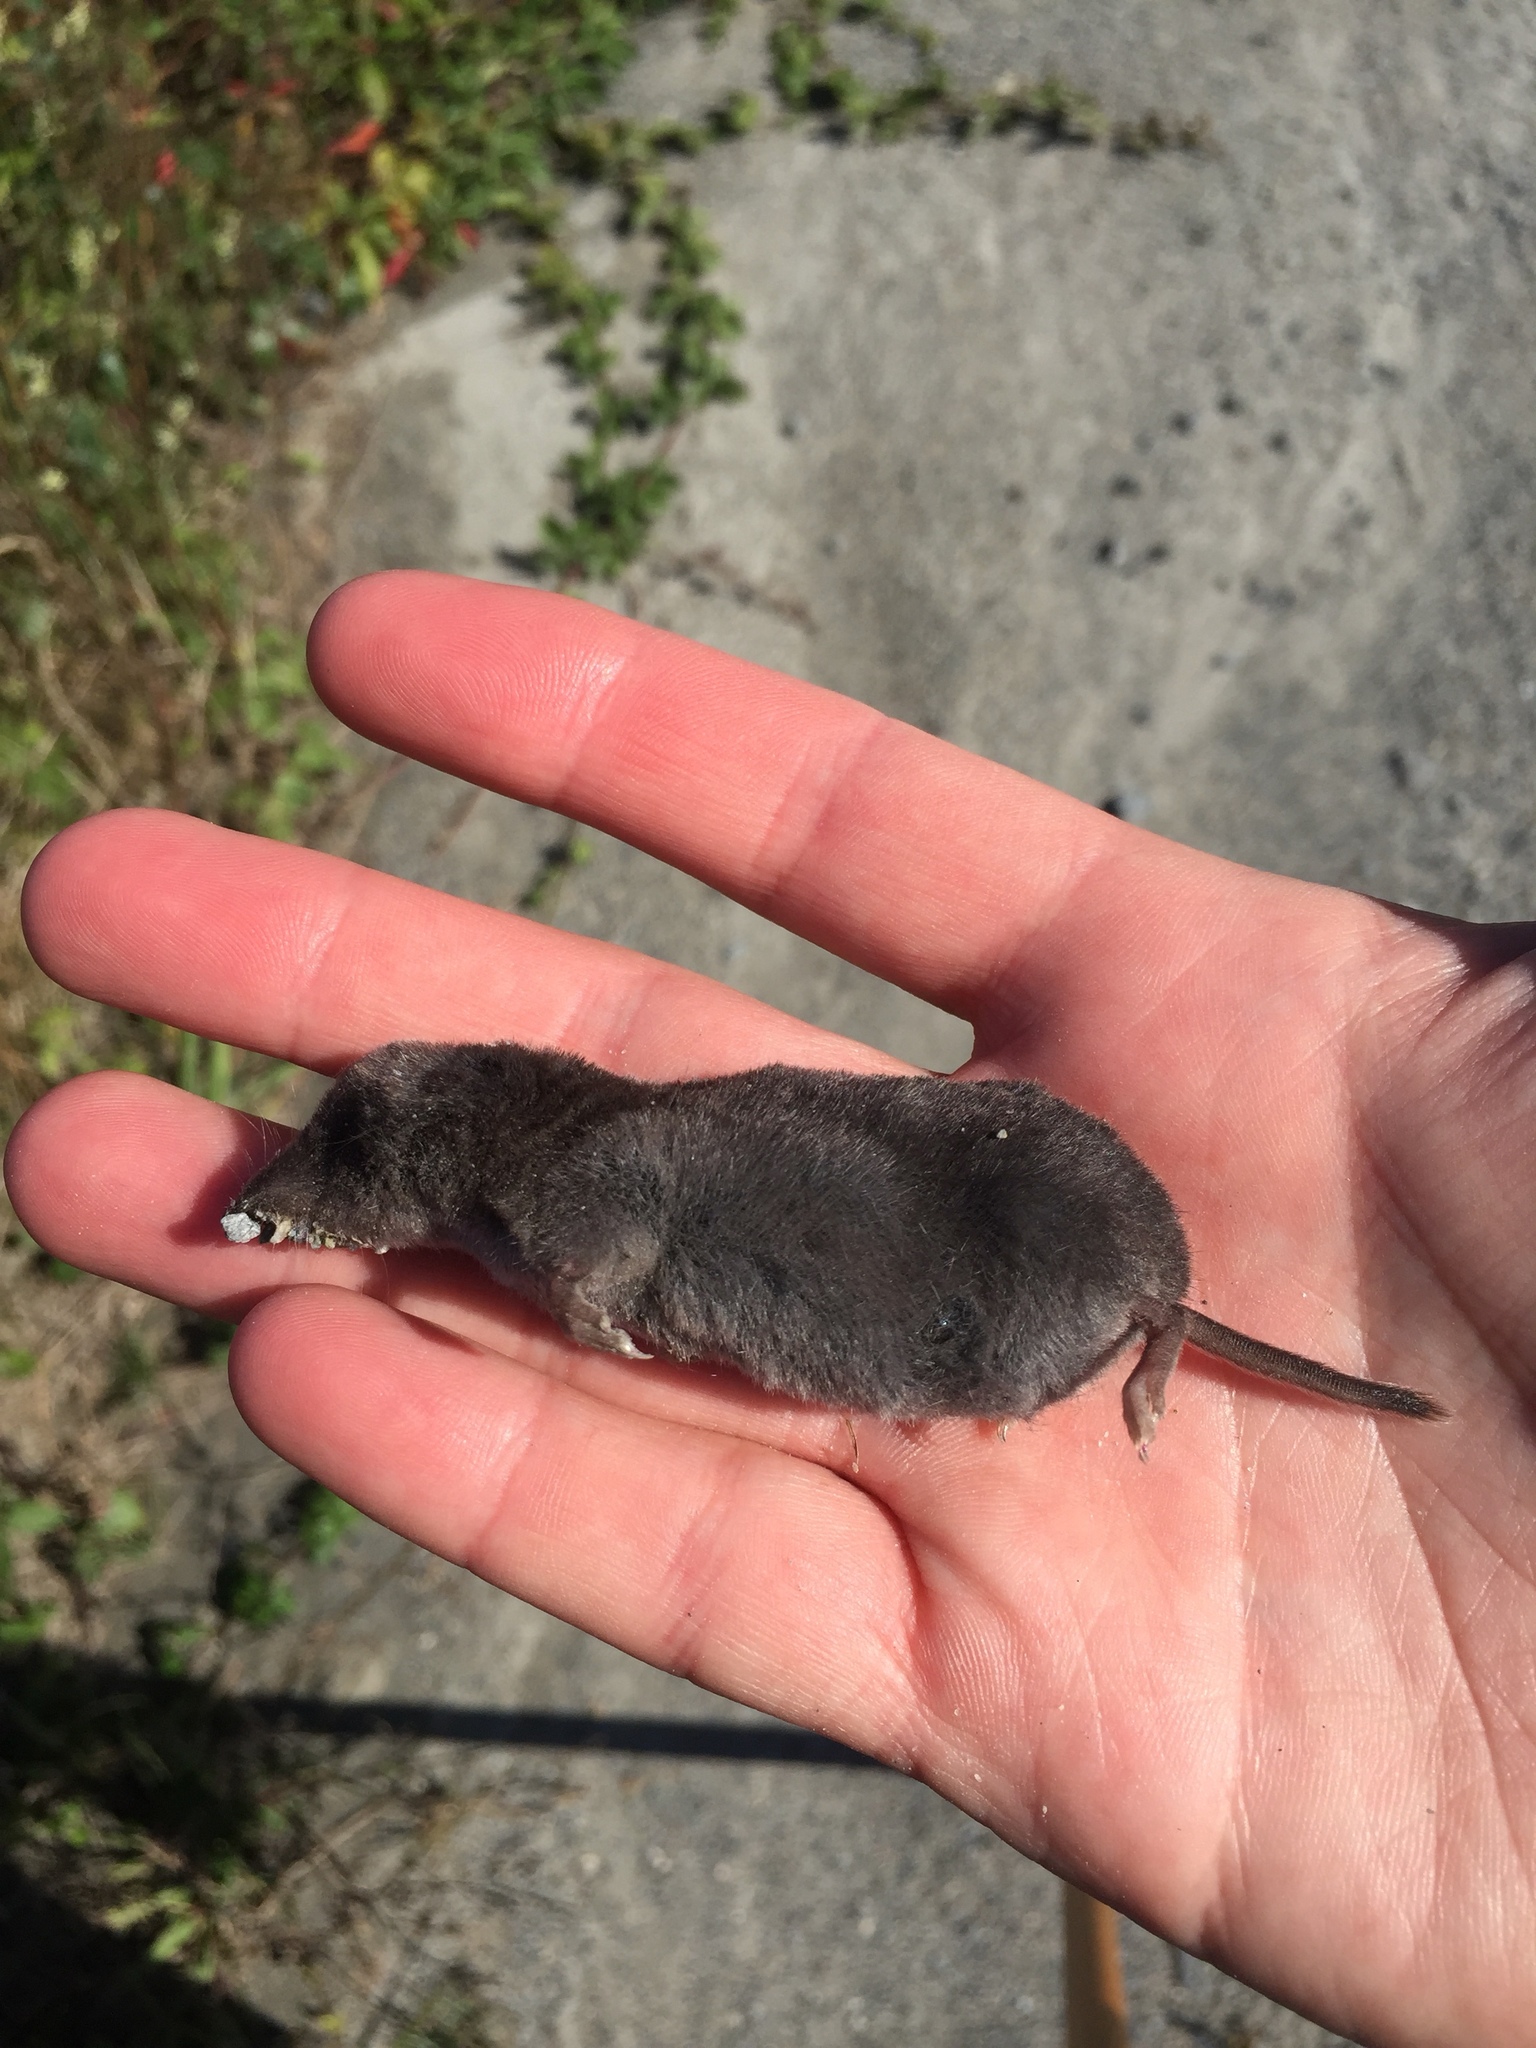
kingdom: Animalia
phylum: Chordata
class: Mammalia
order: Soricomorpha
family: Soricidae
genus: Blarina
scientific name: Blarina brevicauda
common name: Northern short-tailed shrew
